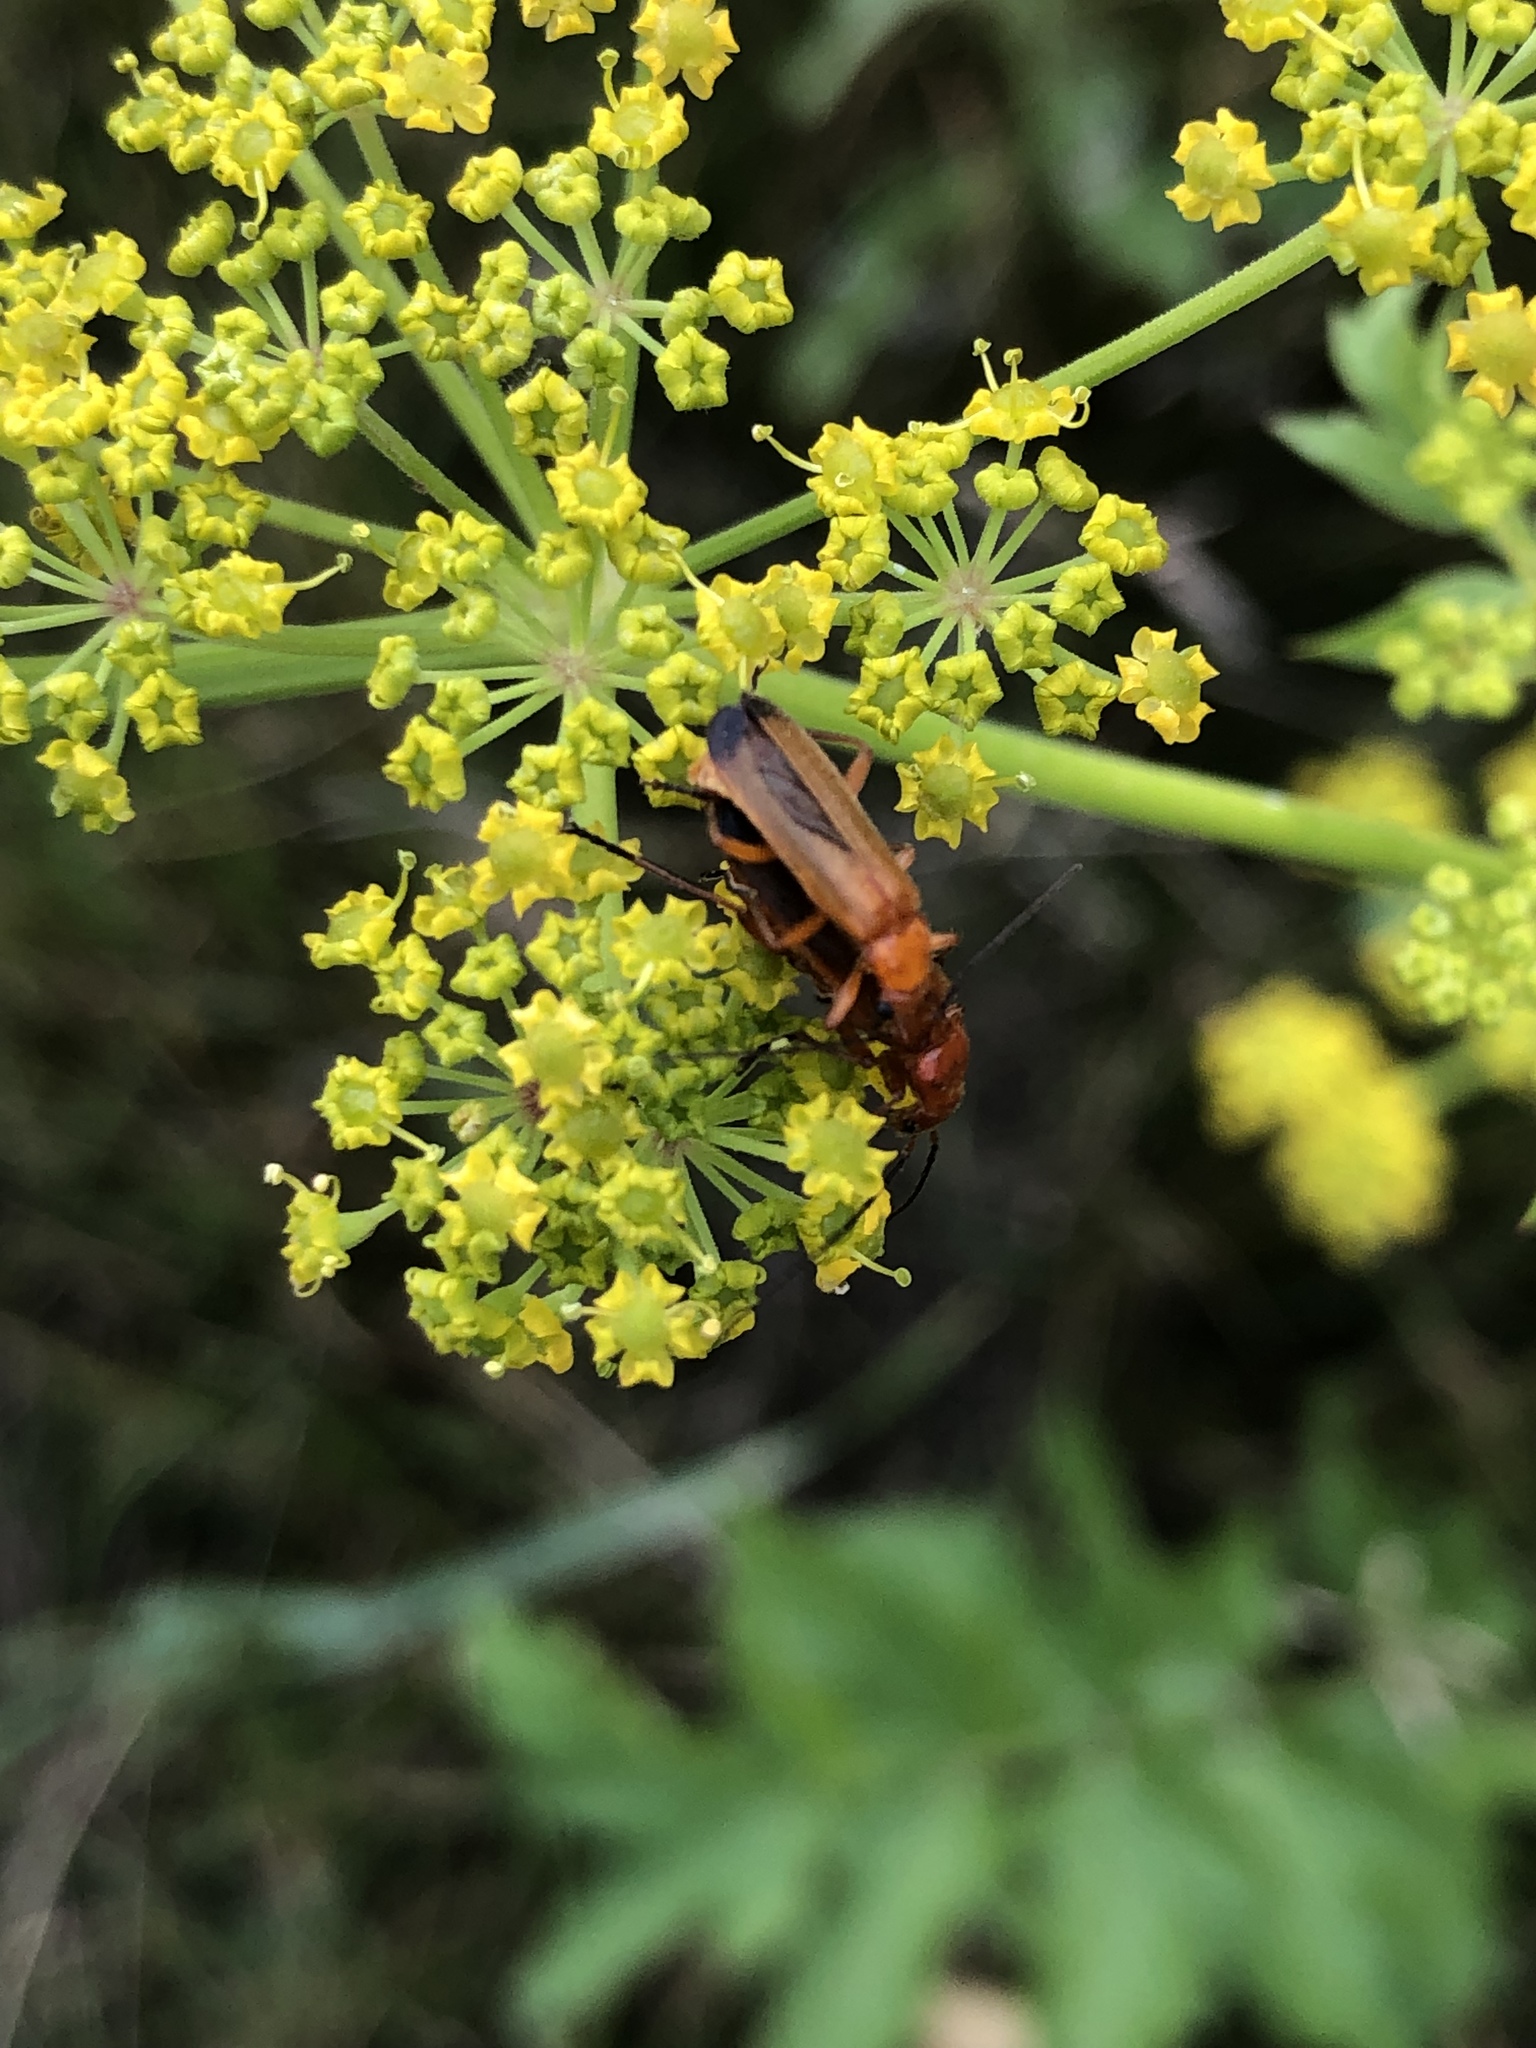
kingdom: Animalia
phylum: Arthropoda
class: Insecta
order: Coleoptera
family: Cantharidae
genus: Rhagonycha
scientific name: Rhagonycha fulva
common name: Common red soldier beetle
